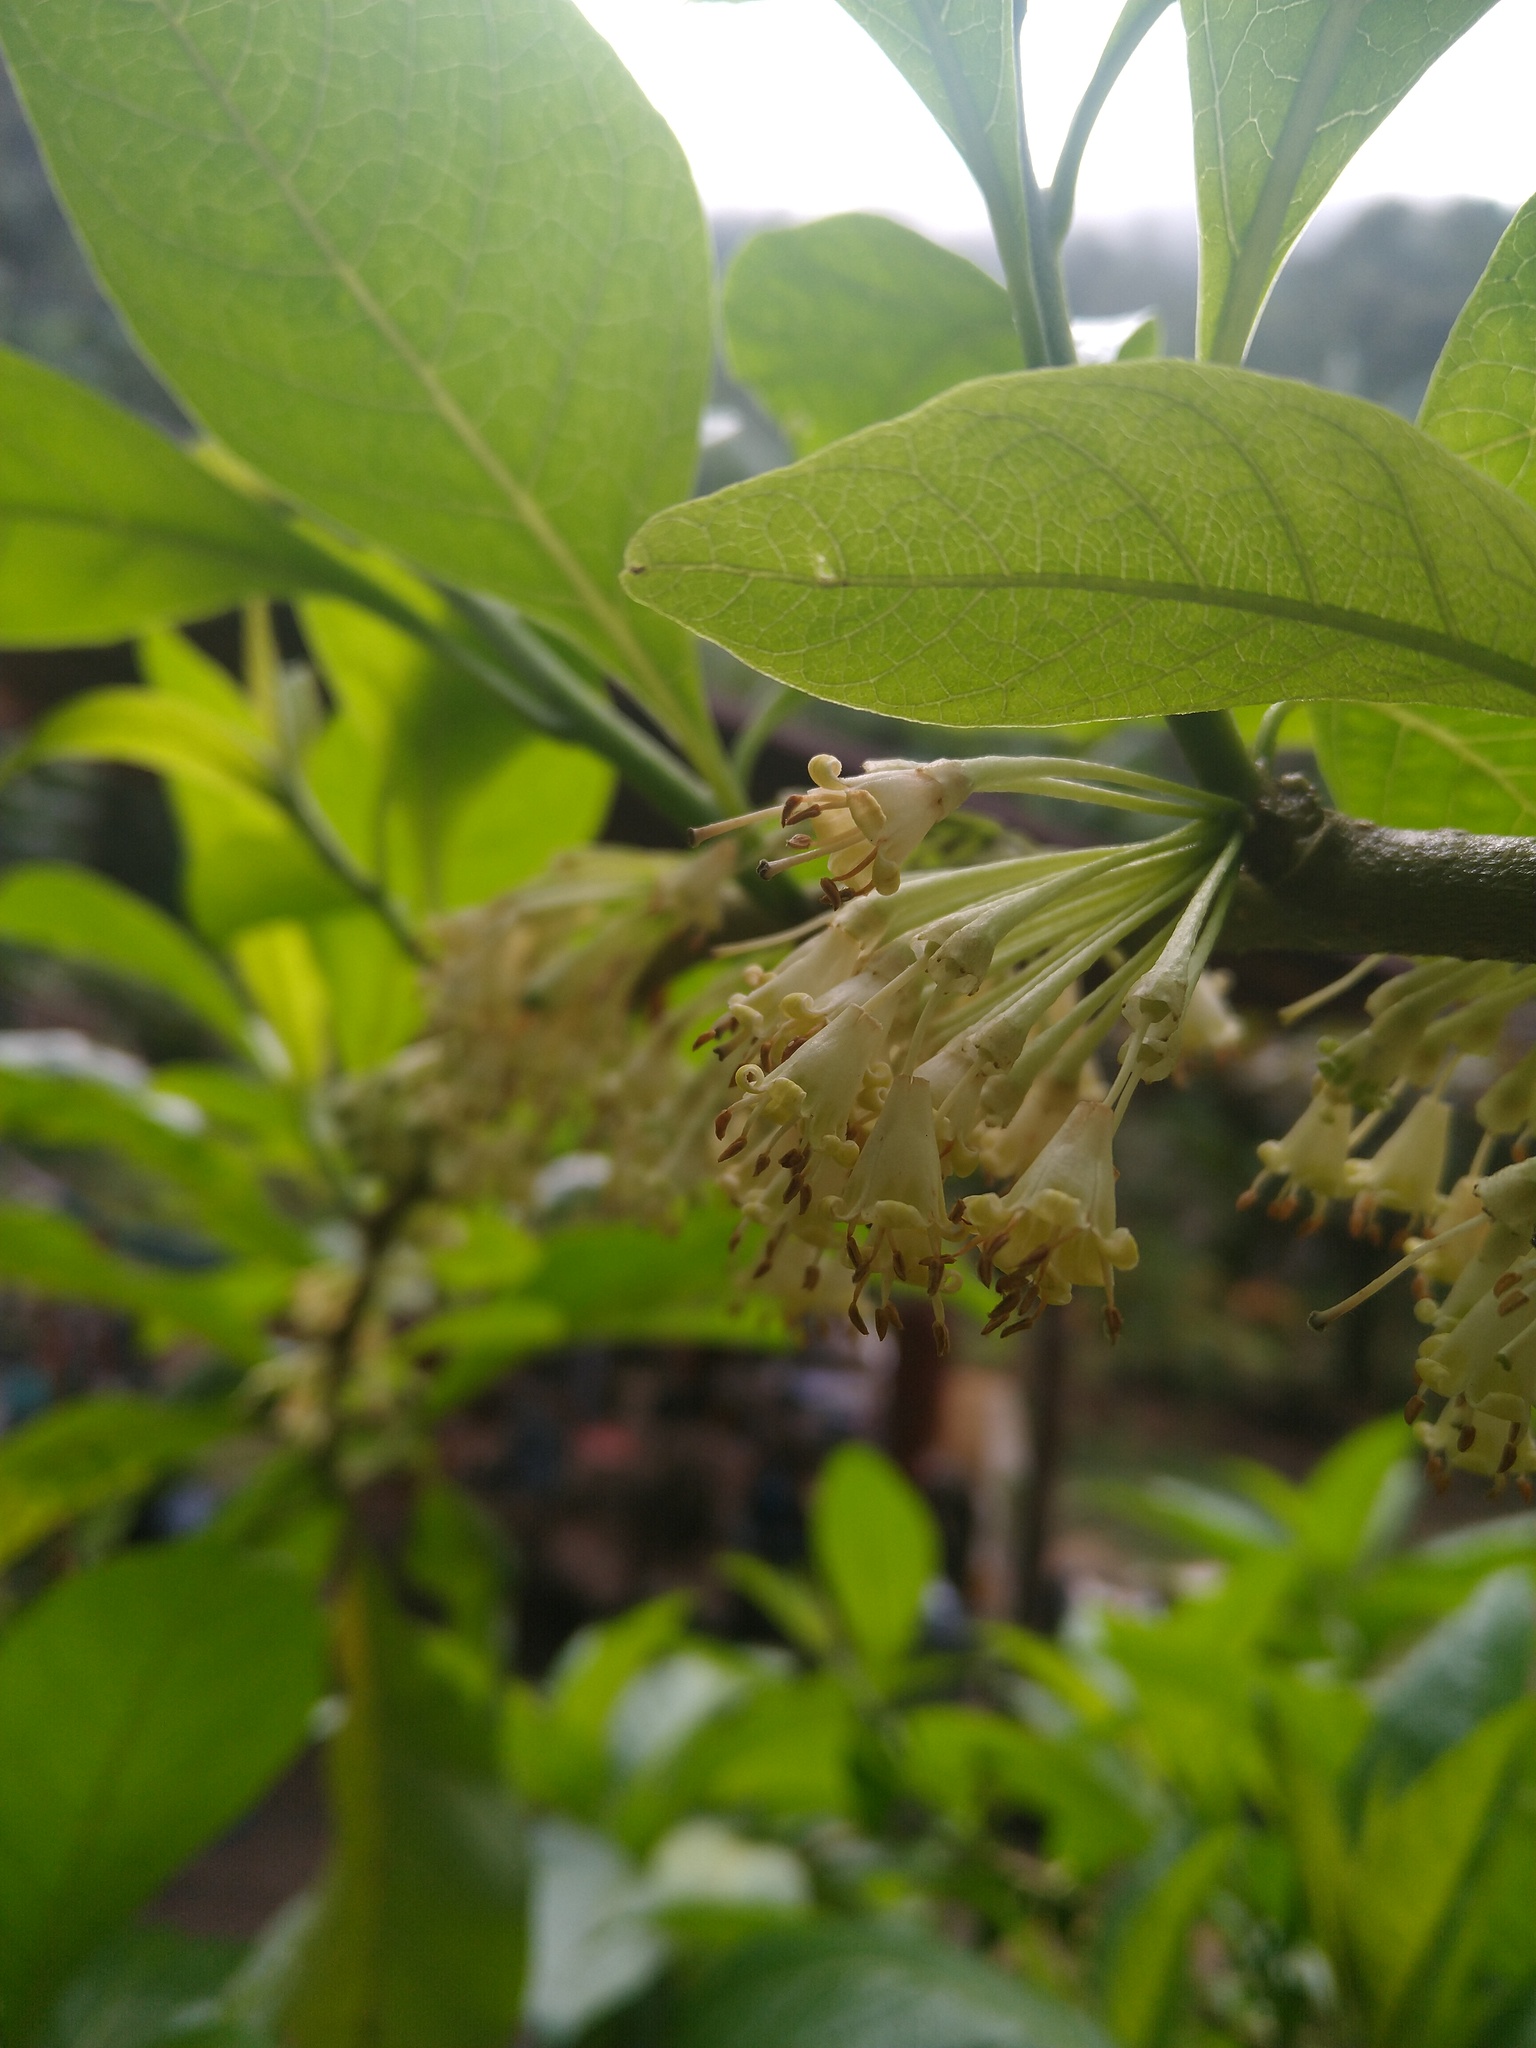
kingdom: Plantae
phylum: Tracheophyta
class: Magnoliopsida
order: Solanales
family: Solanaceae
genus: Iochroma
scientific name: Iochroma arborescens
